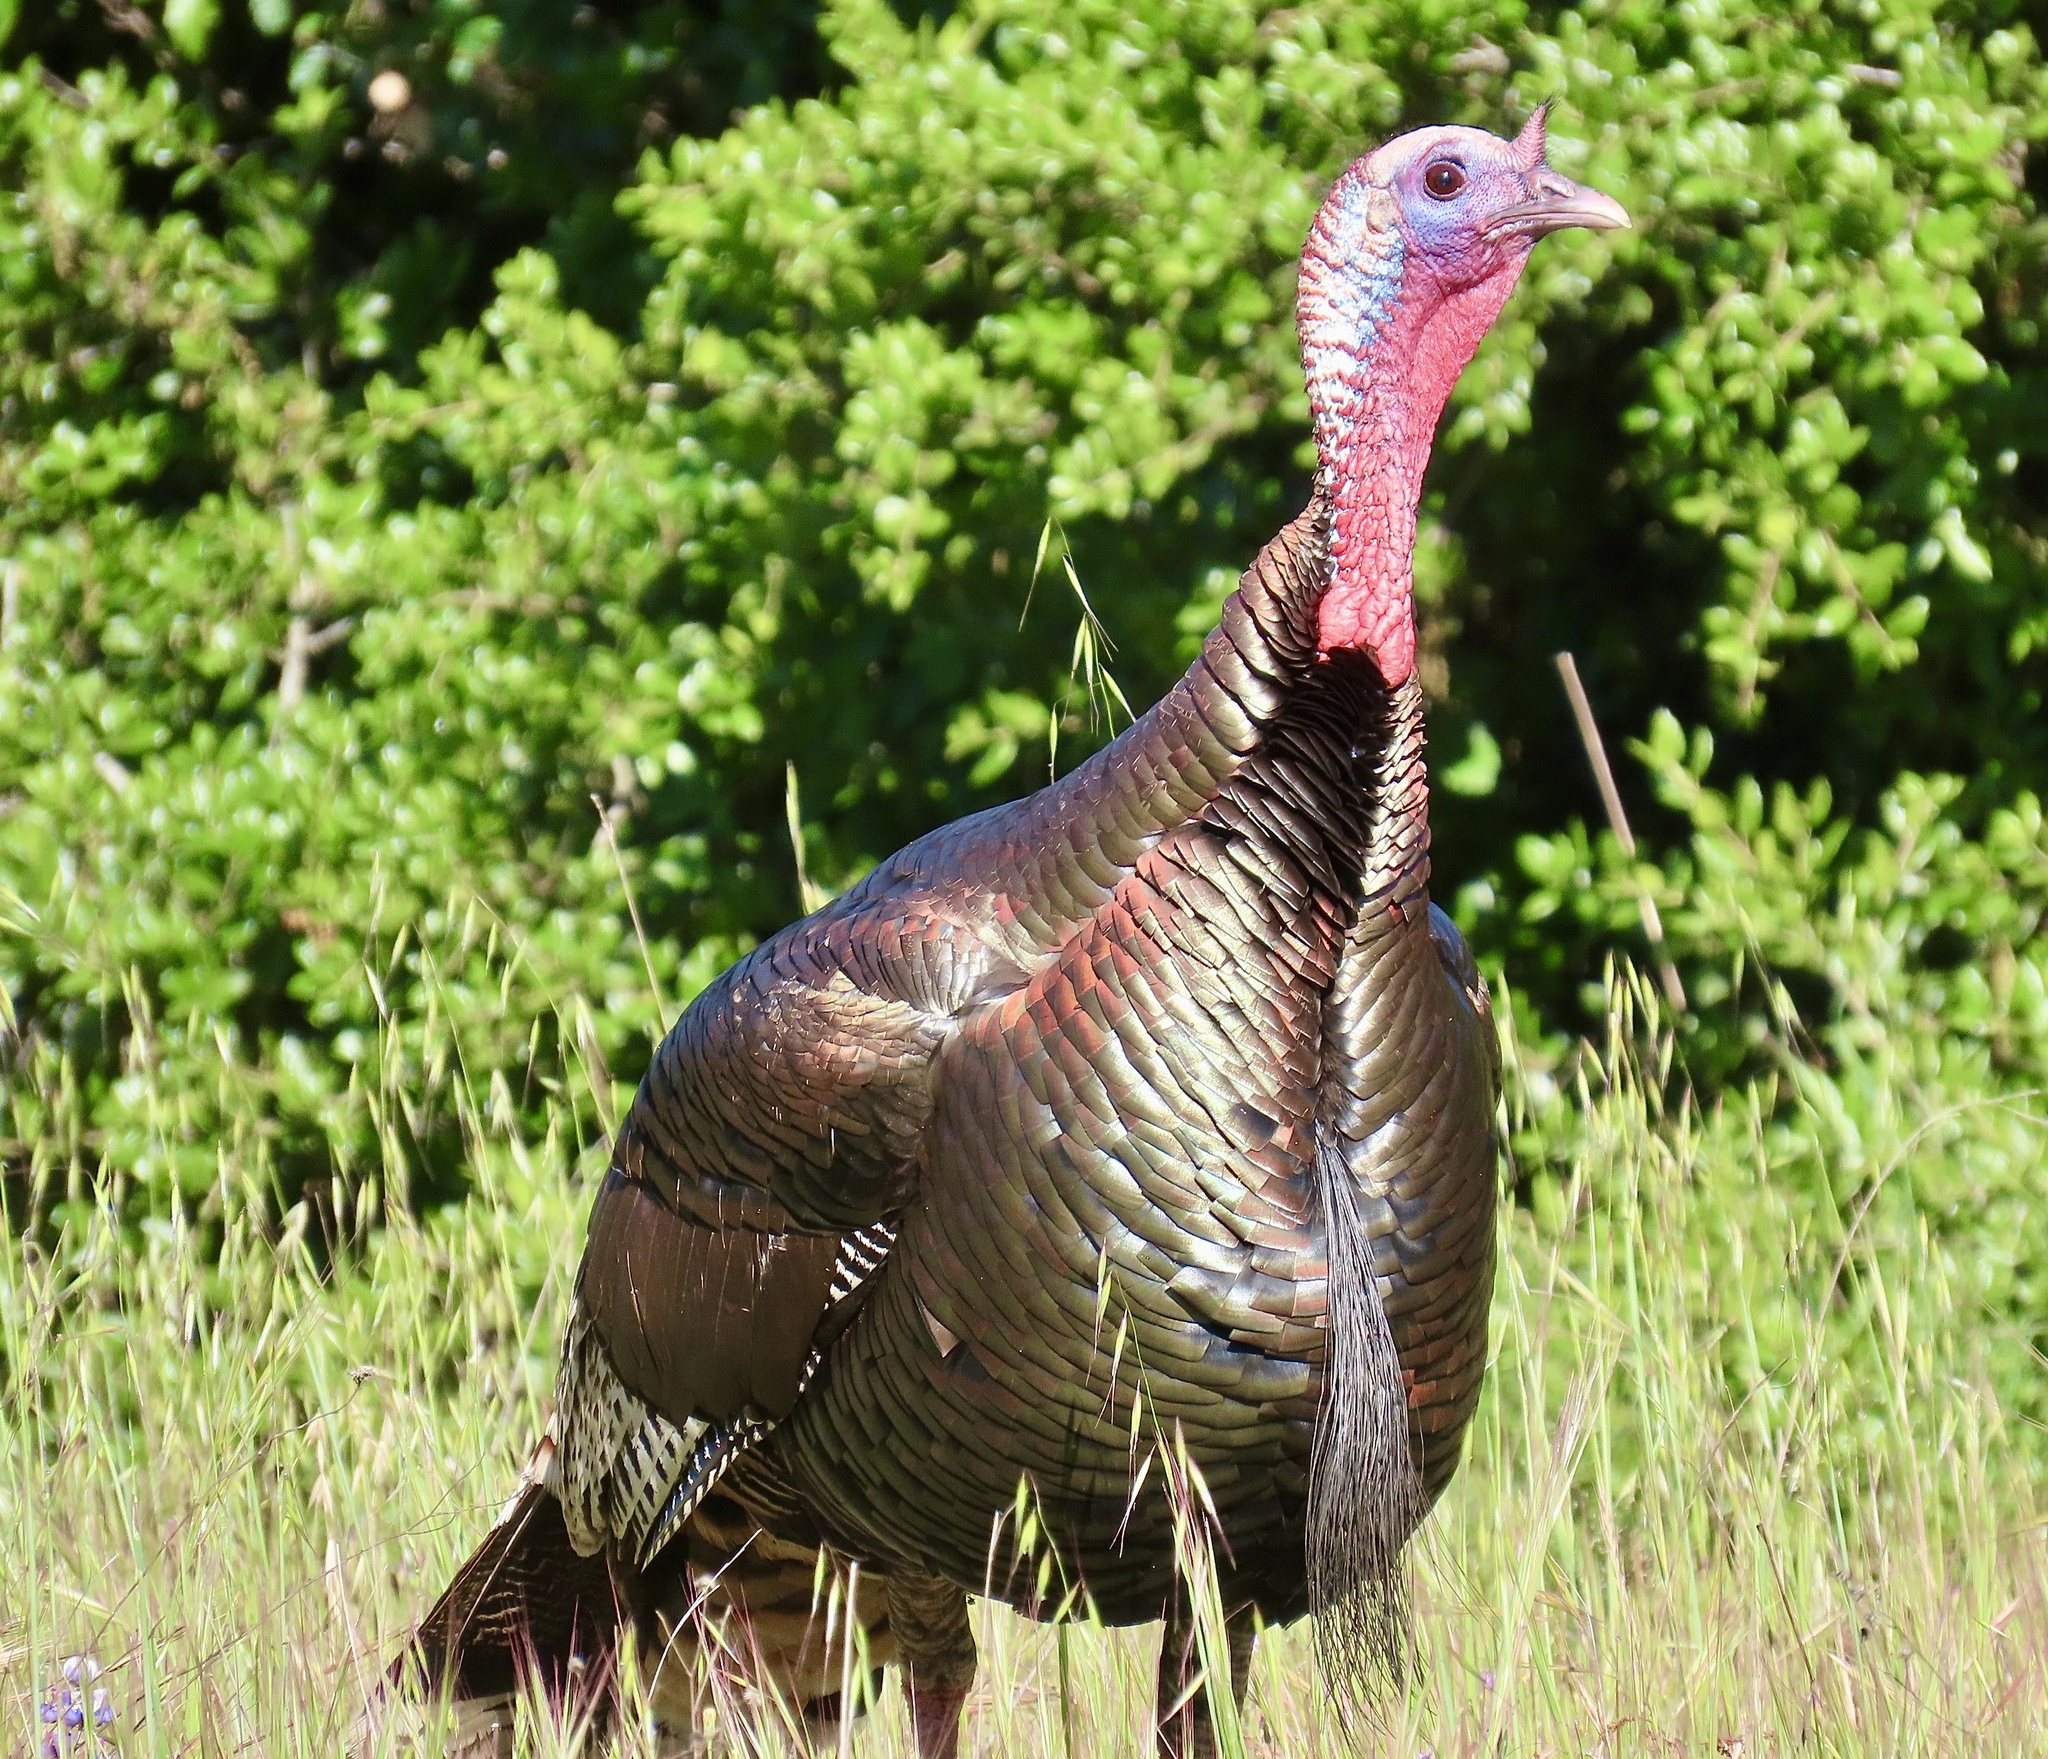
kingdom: Animalia
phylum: Chordata
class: Aves
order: Galliformes
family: Phasianidae
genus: Meleagris
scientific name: Meleagris gallopavo
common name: Wild turkey
